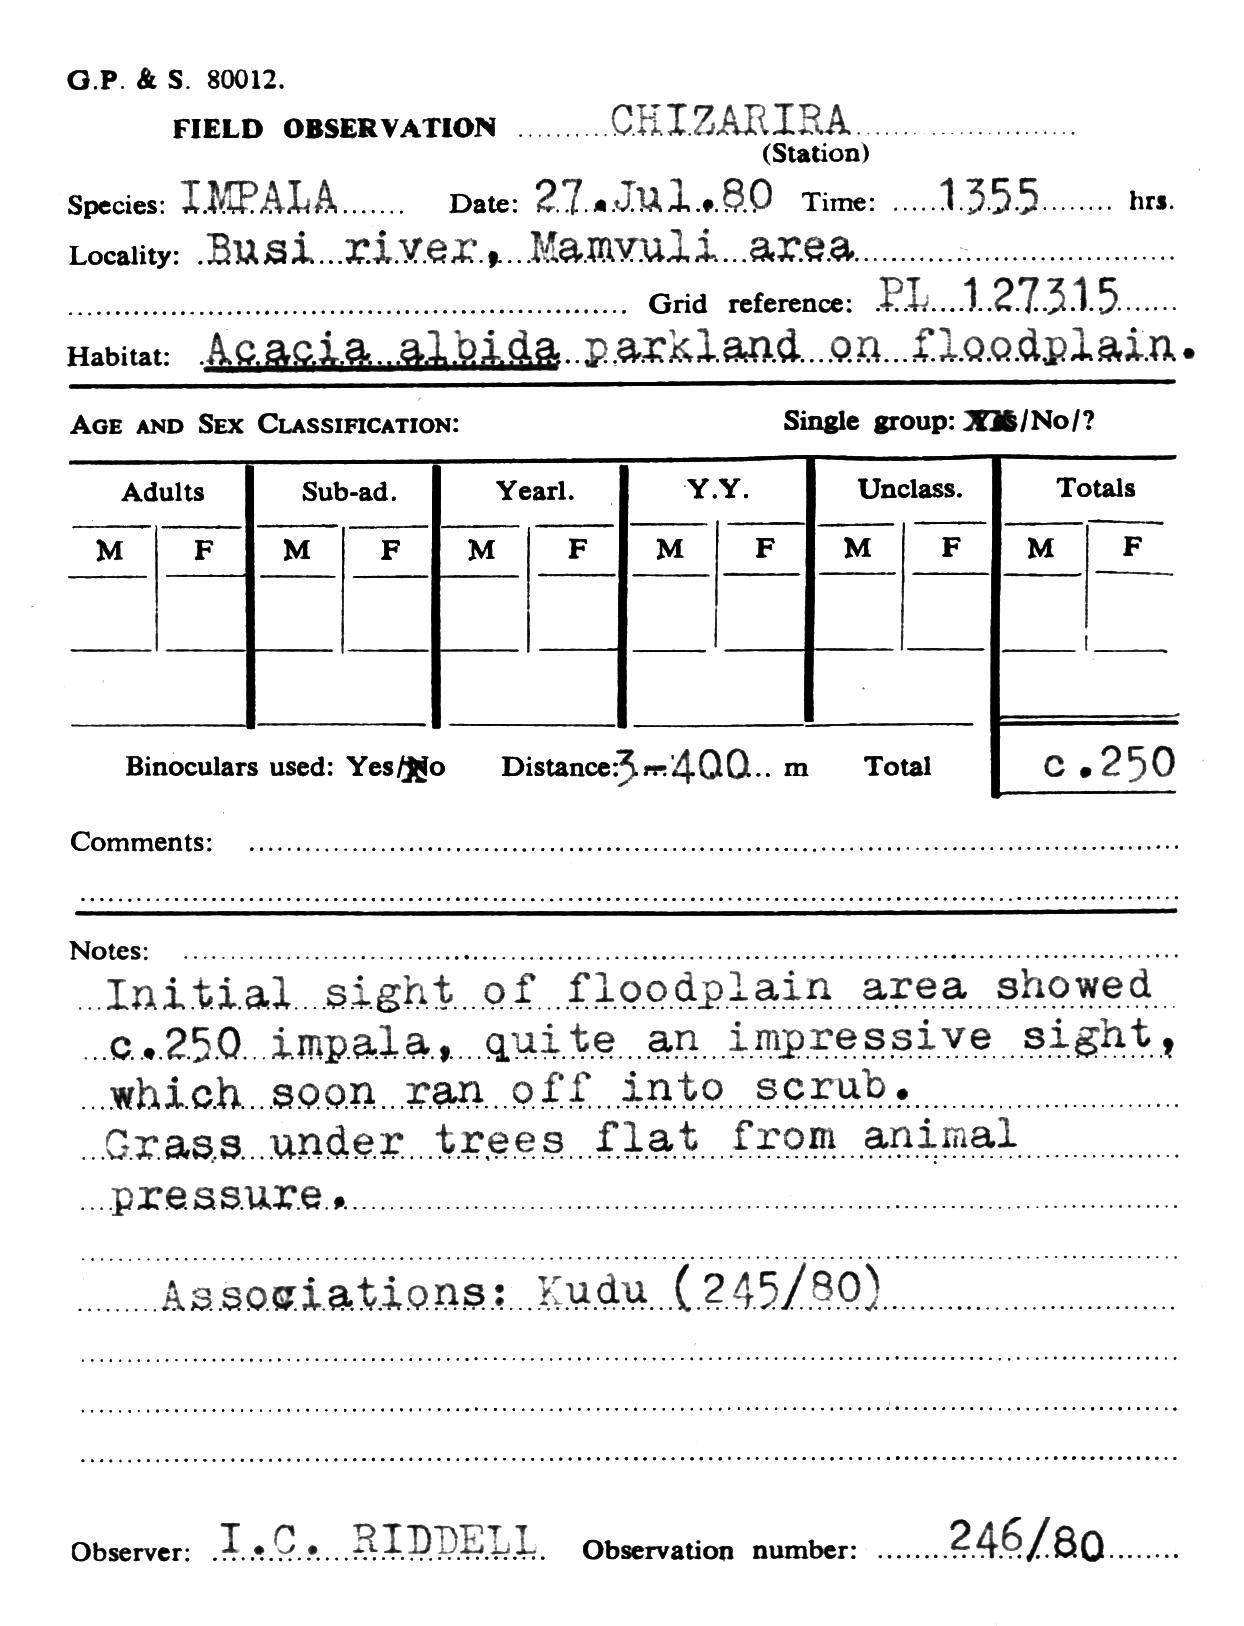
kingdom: Animalia
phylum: Chordata
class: Mammalia
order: Artiodactyla
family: Bovidae
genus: Aepyceros
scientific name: Aepyceros melampus
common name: Impala
